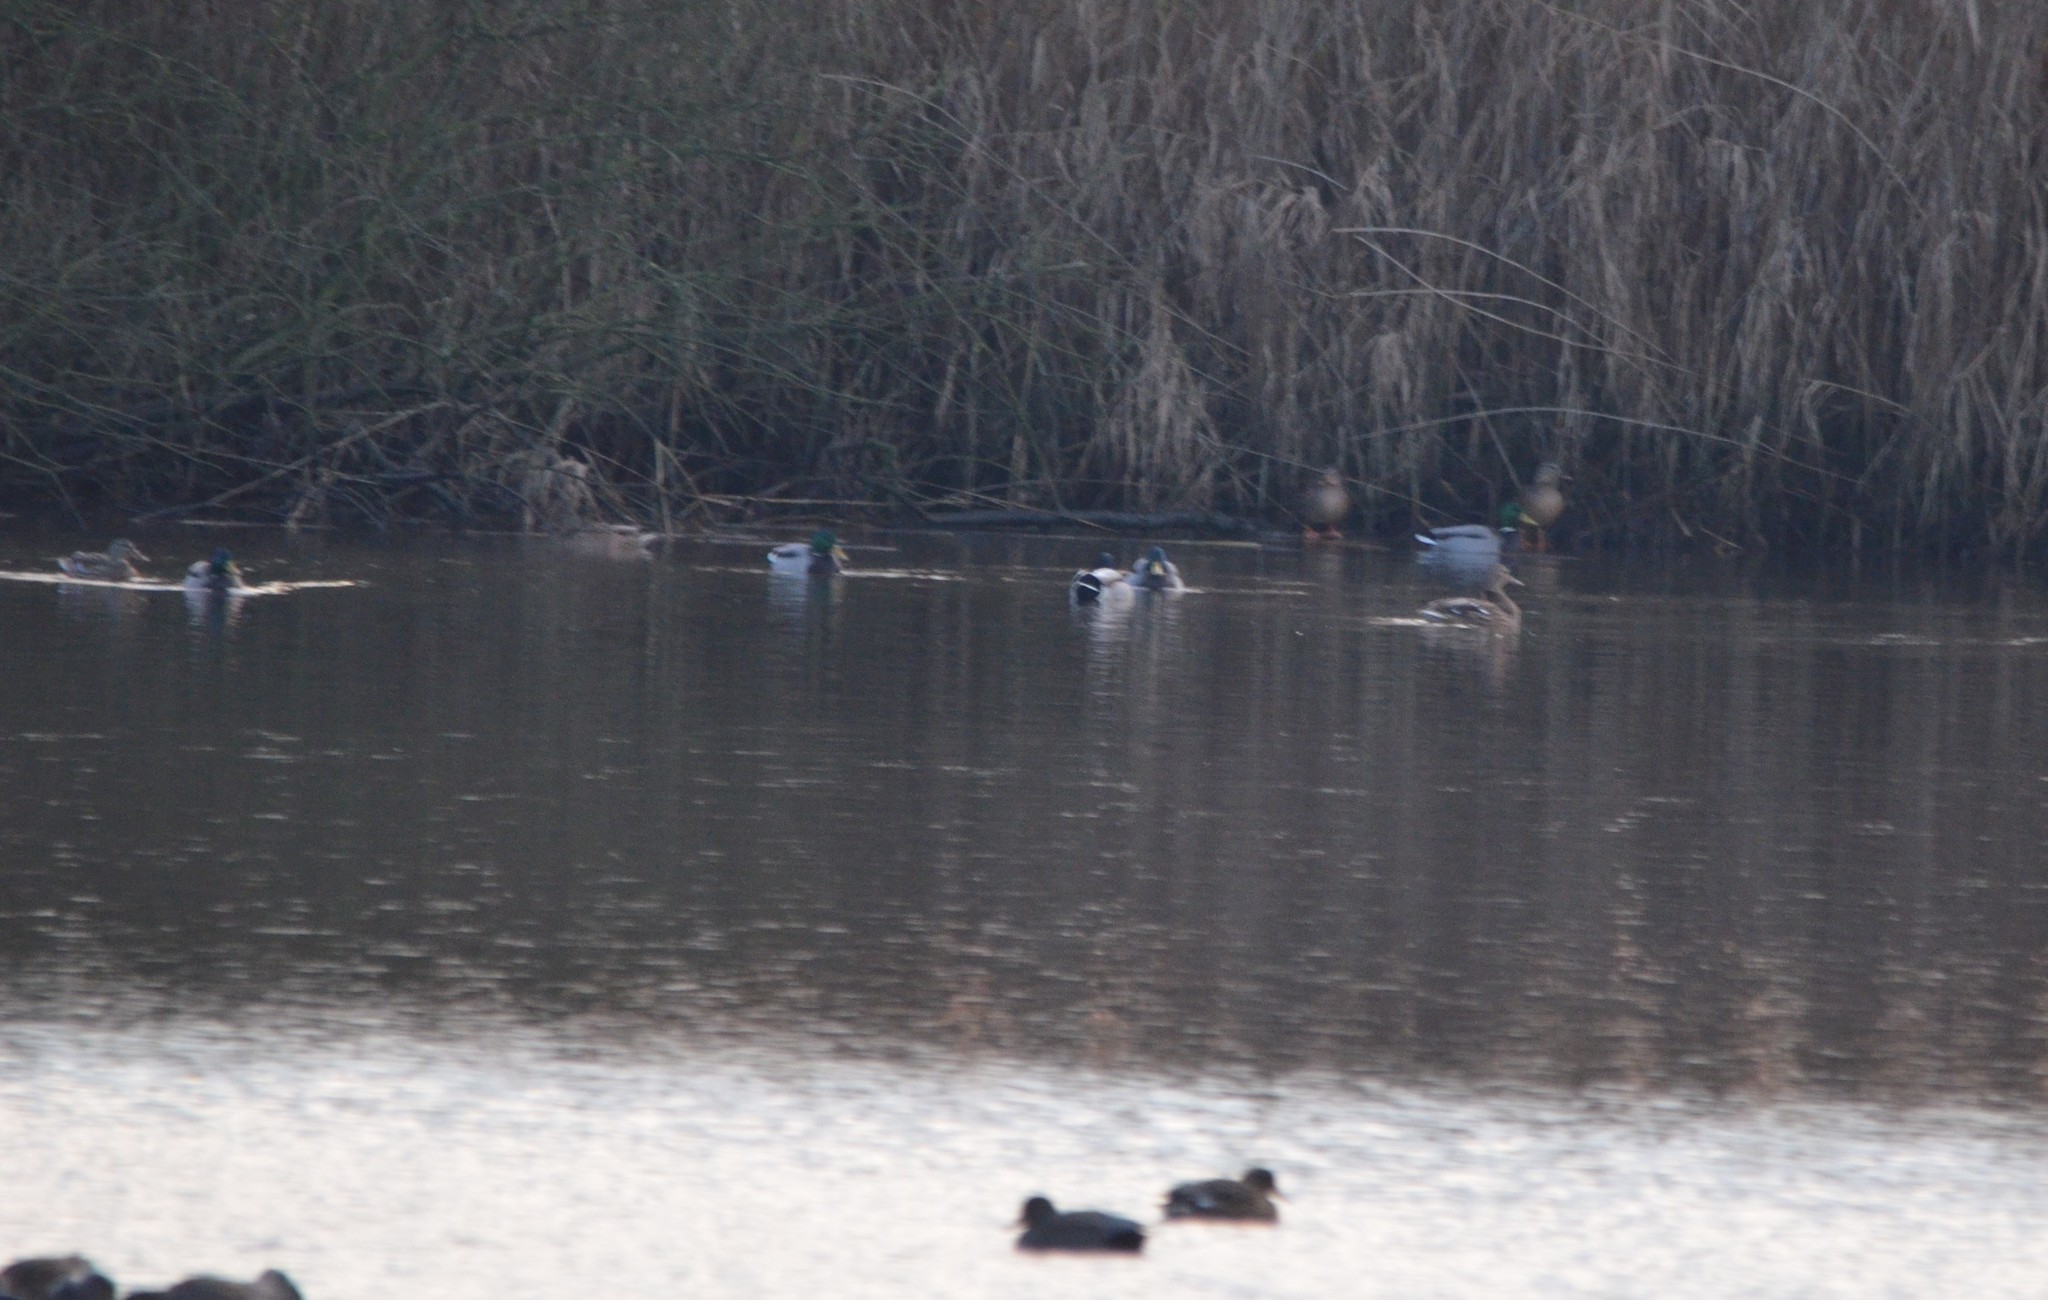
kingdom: Animalia
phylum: Chordata
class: Aves
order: Anseriformes
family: Anatidae
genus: Anas
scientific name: Anas platyrhynchos
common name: Mallard
